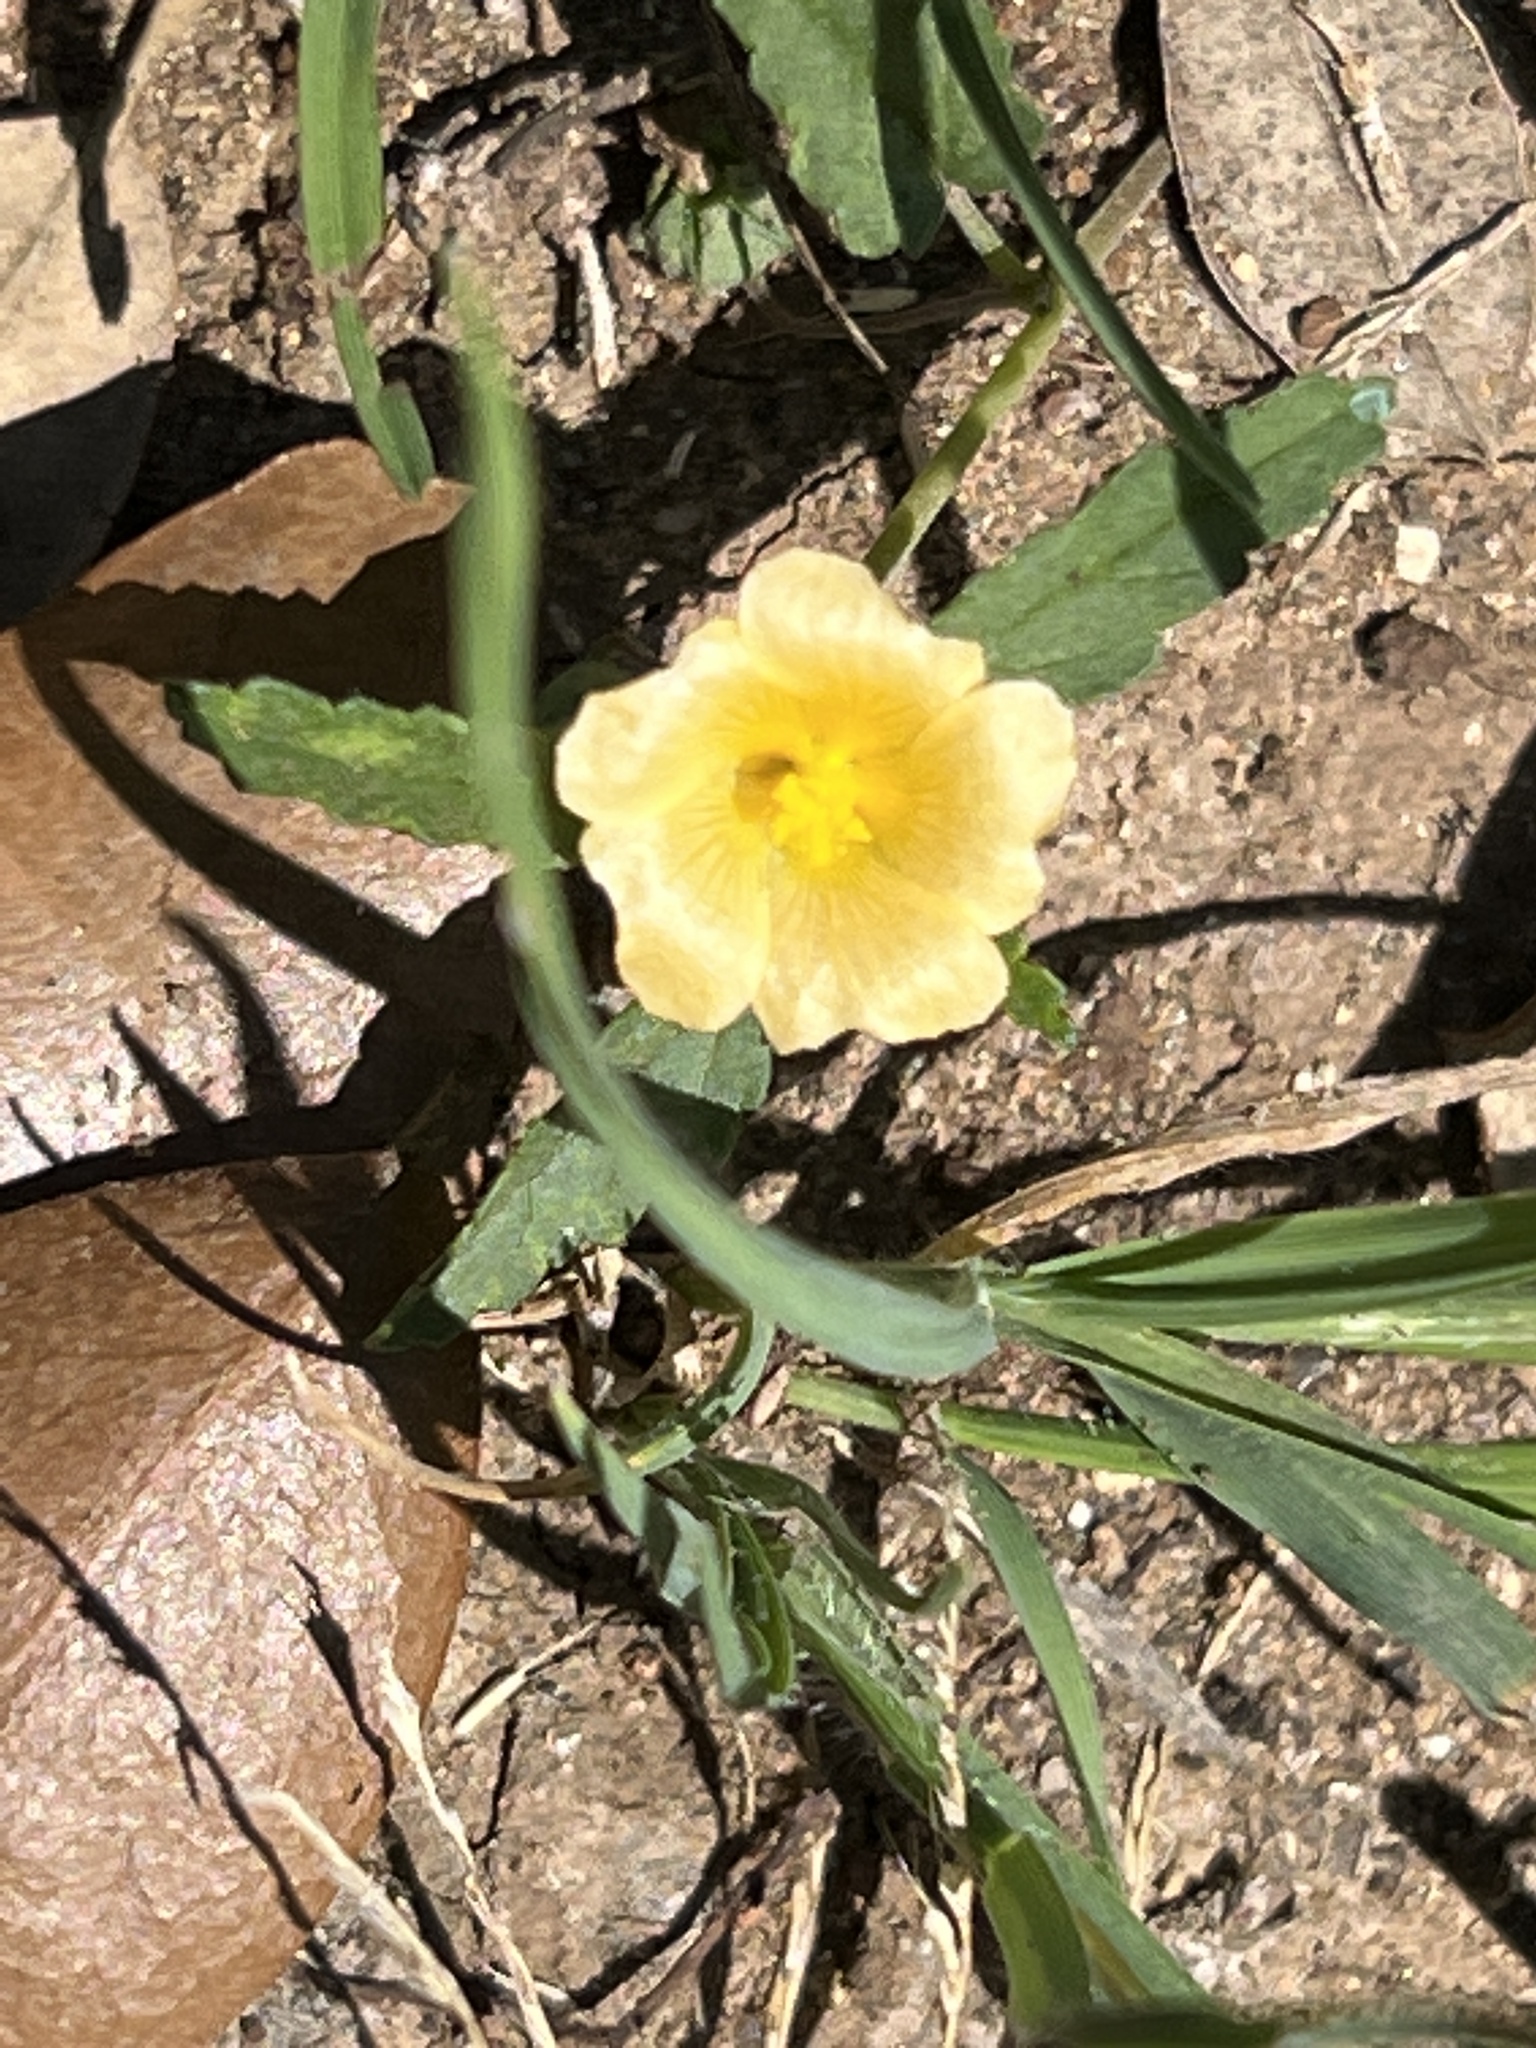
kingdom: Plantae
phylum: Tracheophyta
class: Magnoliopsida
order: Malvales
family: Malvaceae
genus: Sida
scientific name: Sida abutilifolia
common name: Spreading fanpetals
